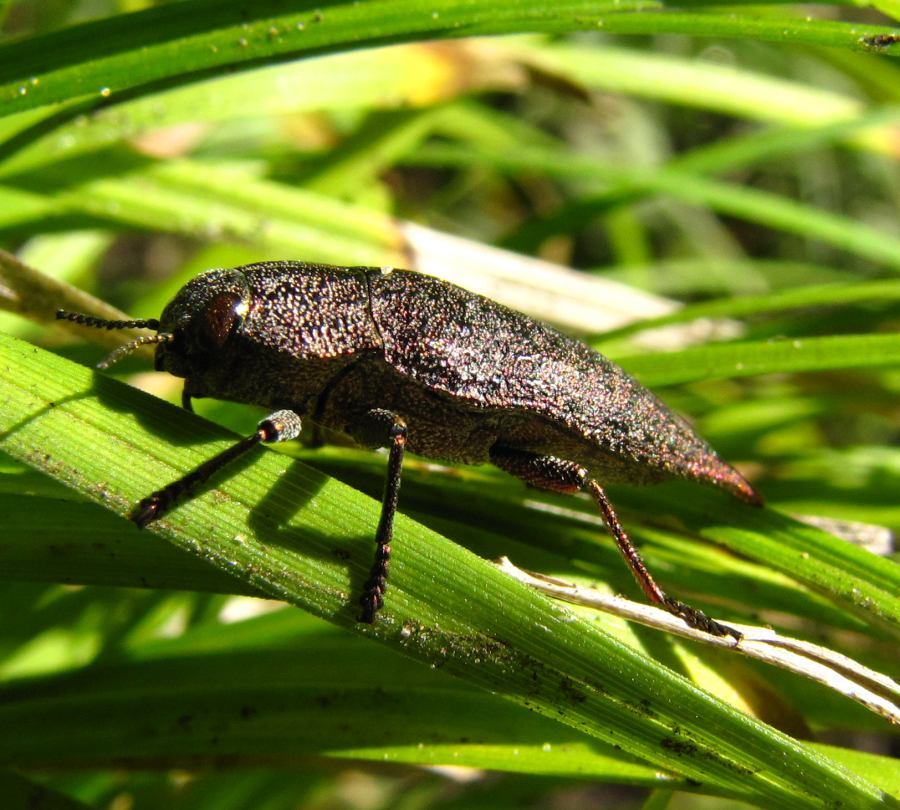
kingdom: Animalia
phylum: Arthropoda
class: Insecta
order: Coleoptera
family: Buprestidae
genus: Dicerca
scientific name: Dicerca divaricata
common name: Flat-headed hardwood borer
